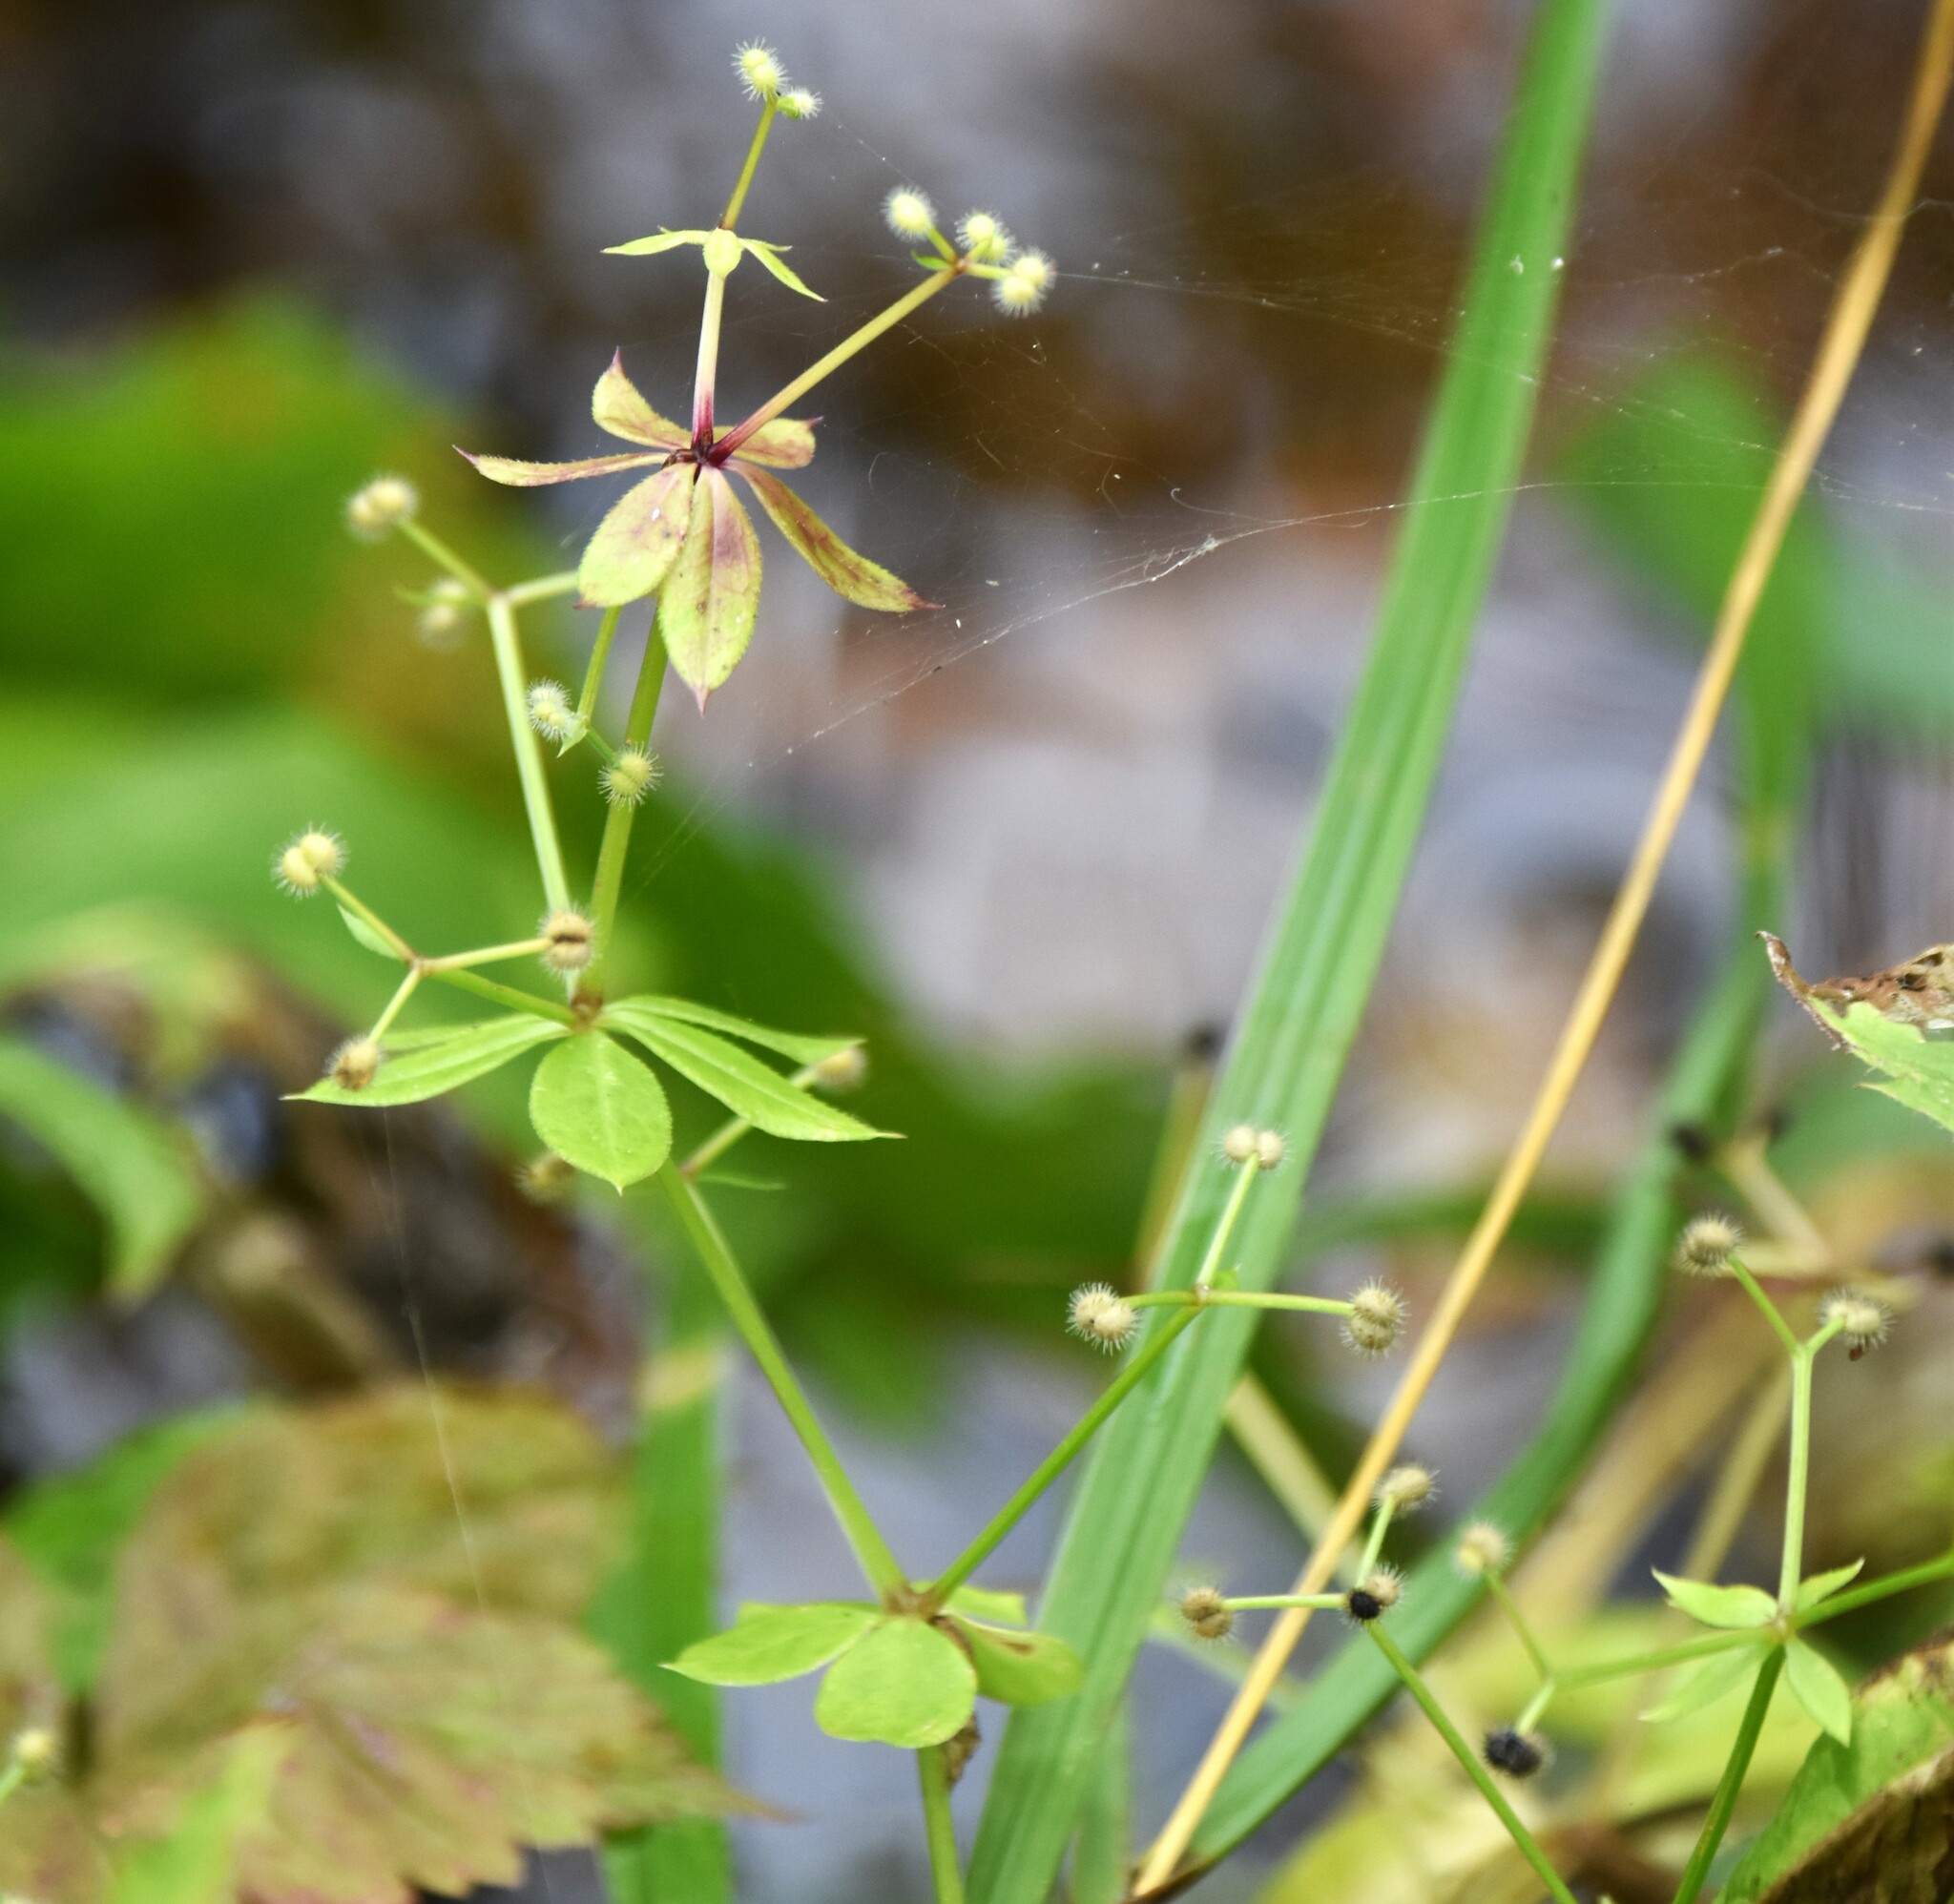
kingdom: Plantae
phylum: Tracheophyta
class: Magnoliopsida
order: Gentianales
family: Rubiaceae
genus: Galium
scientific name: Galium triflorum
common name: Fragrant bedstraw
